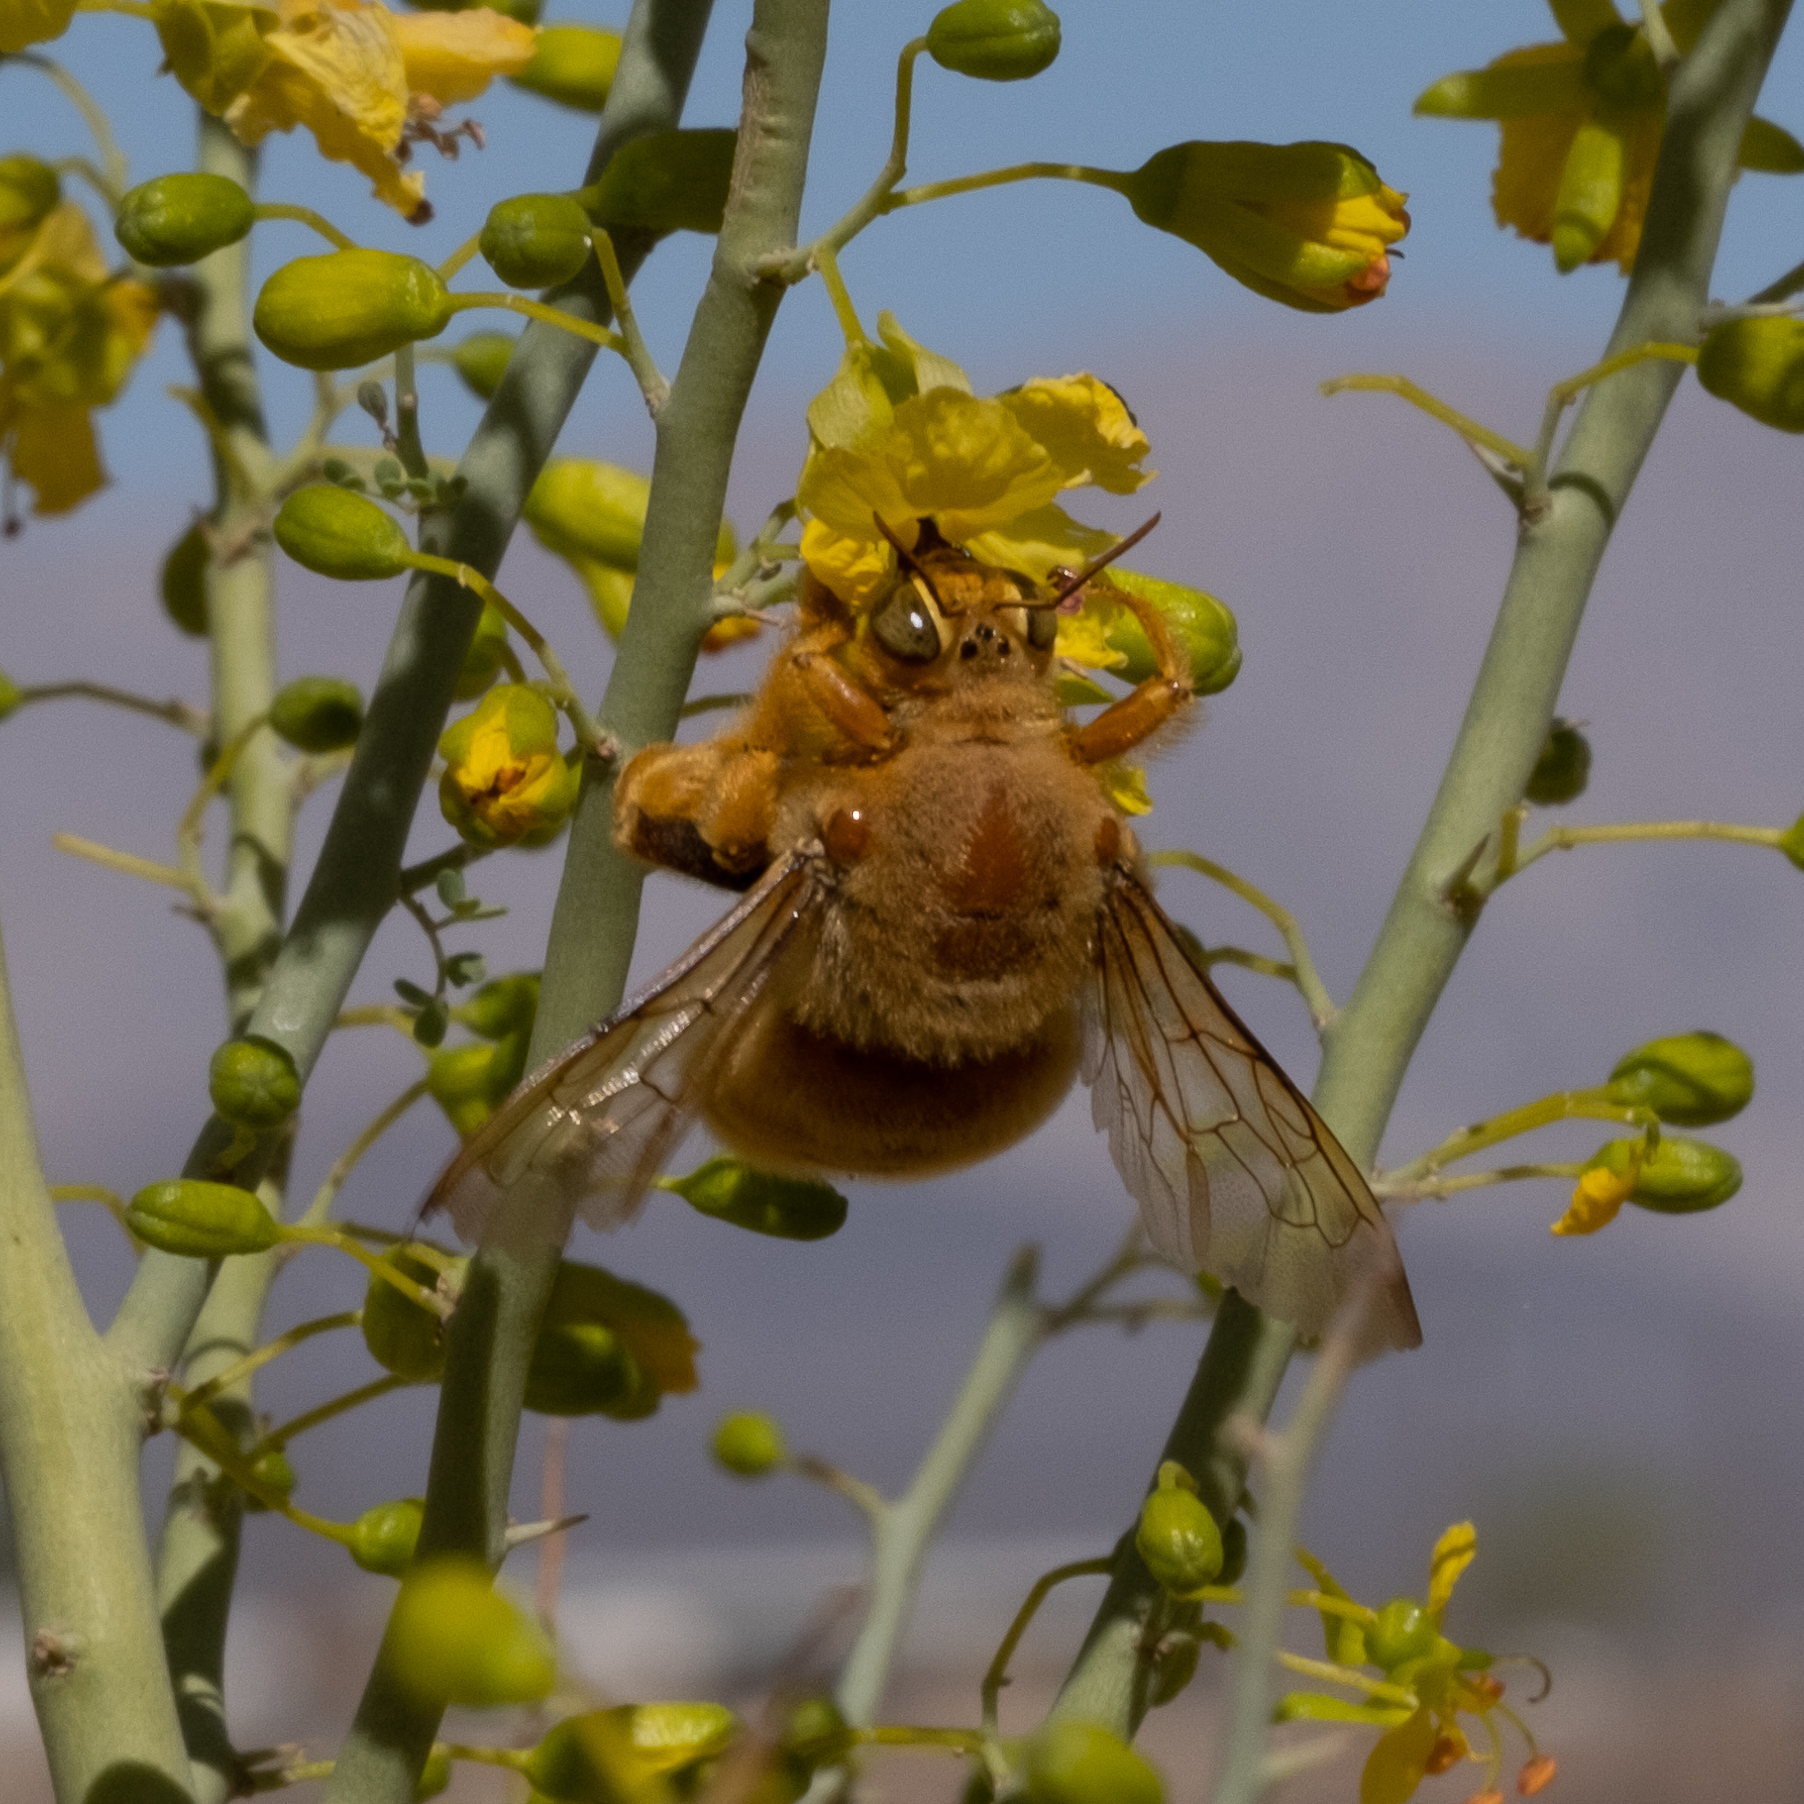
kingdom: Animalia
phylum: Arthropoda
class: Insecta
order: Hymenoptera
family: Apidae
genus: Xylocopa
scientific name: Xylocopa sonorina
